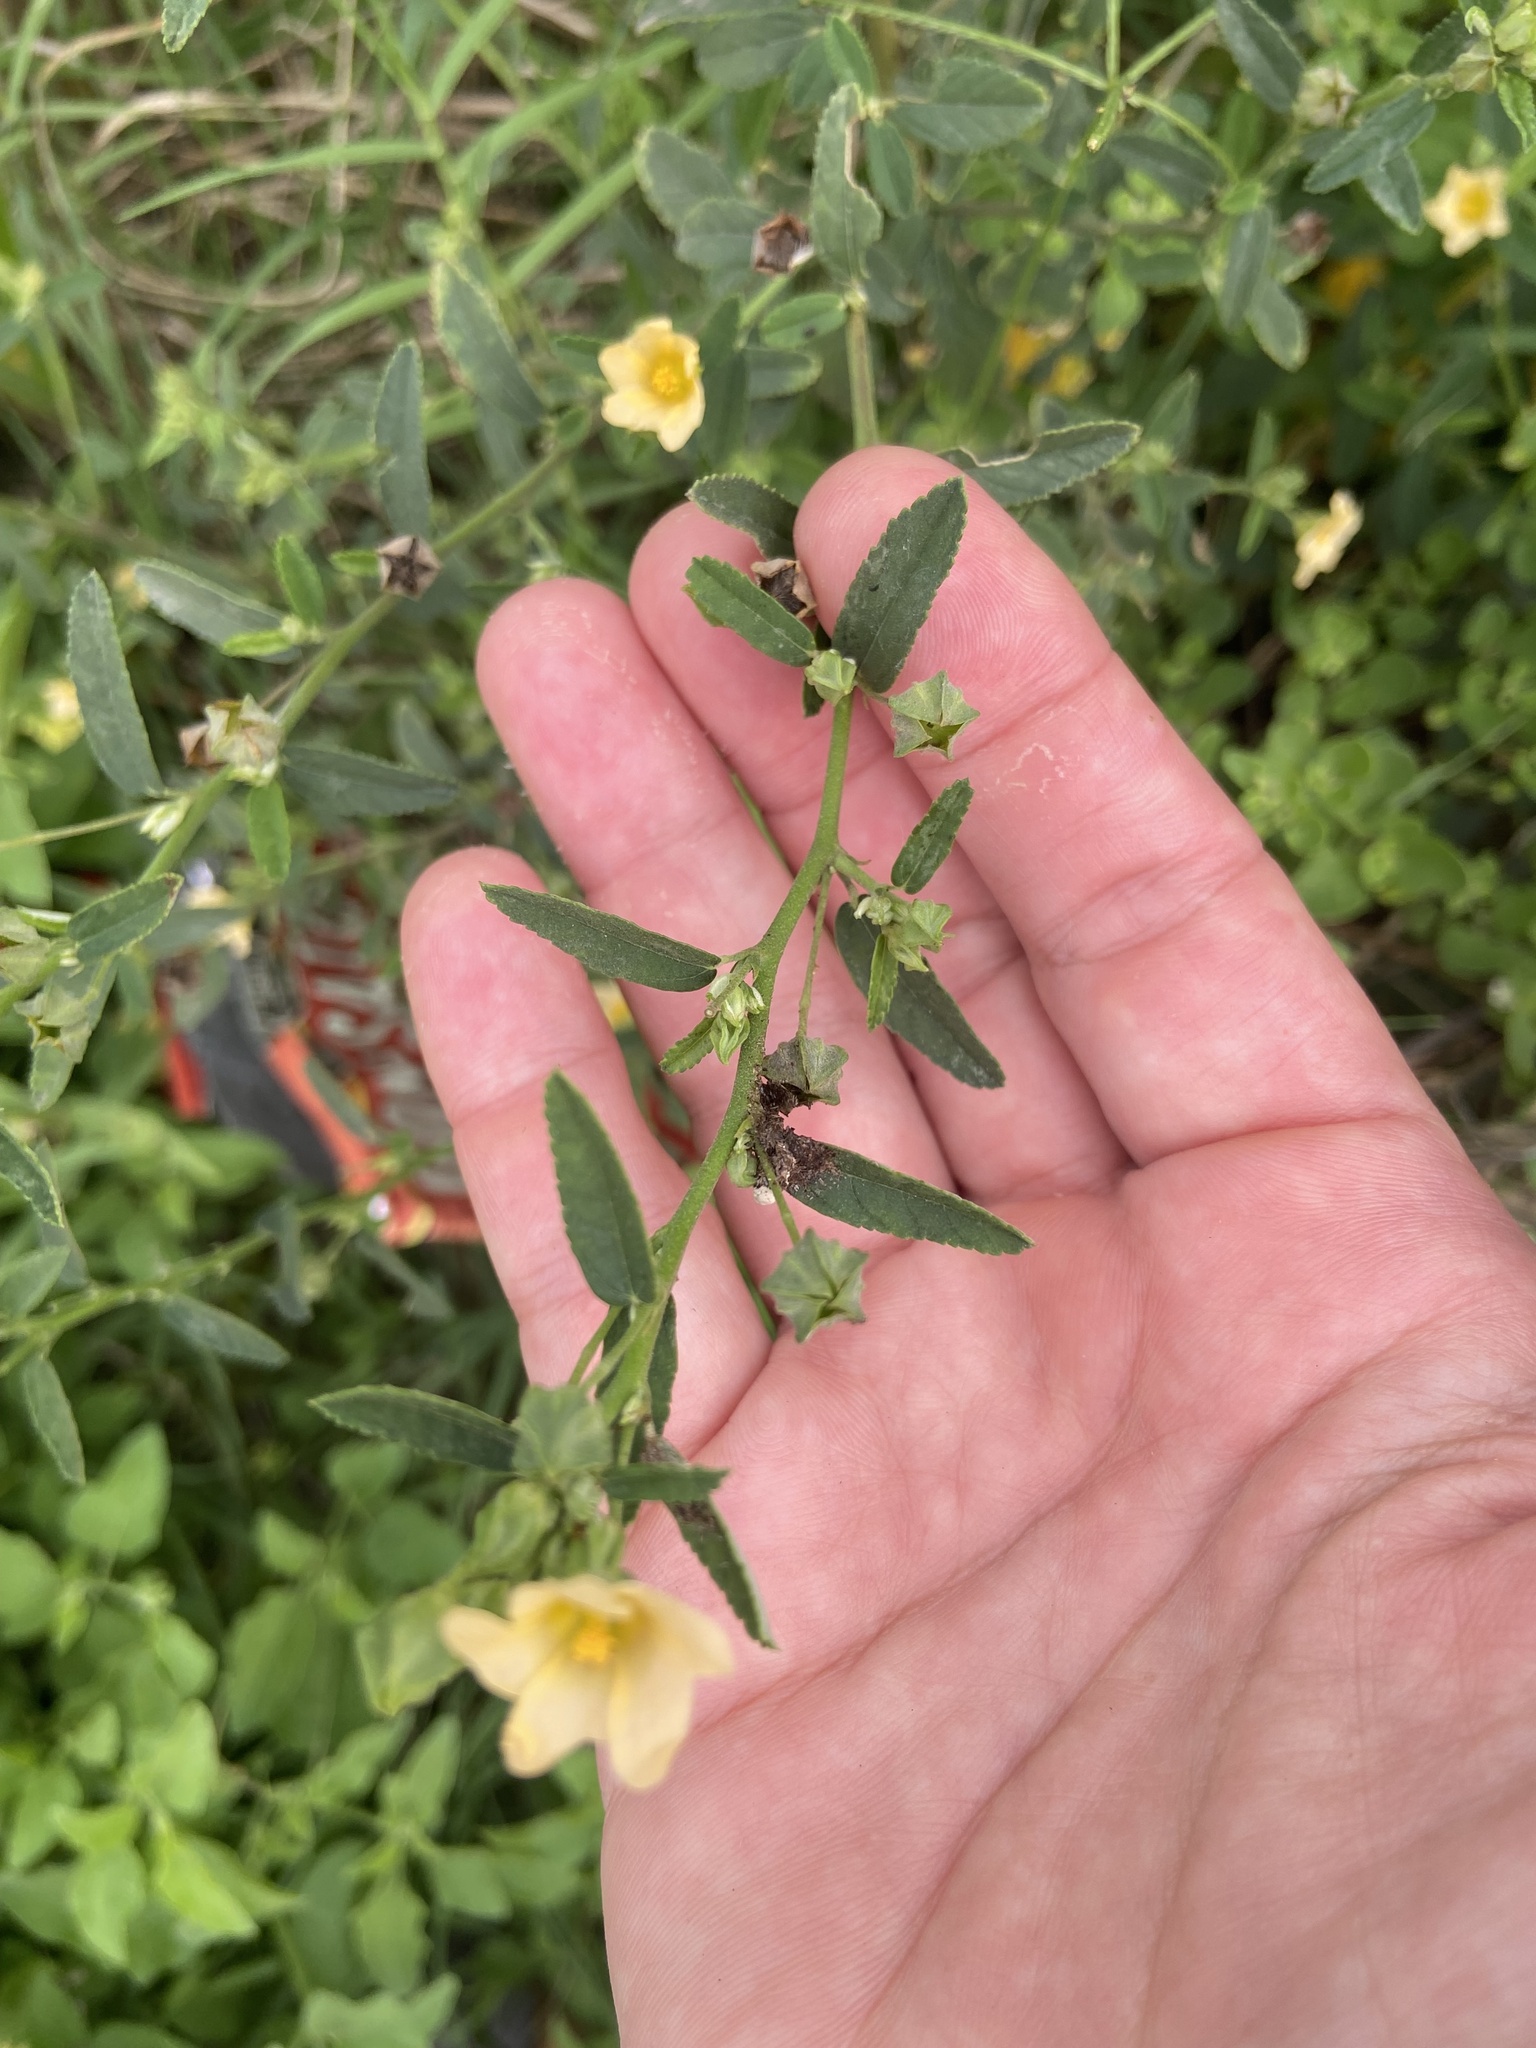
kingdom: Plantae
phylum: Tracheophyta
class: Magnoliopsida
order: Malvales
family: Malvaceae
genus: Sida
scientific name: Sida rhombifolia
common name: Queensland-hemp
